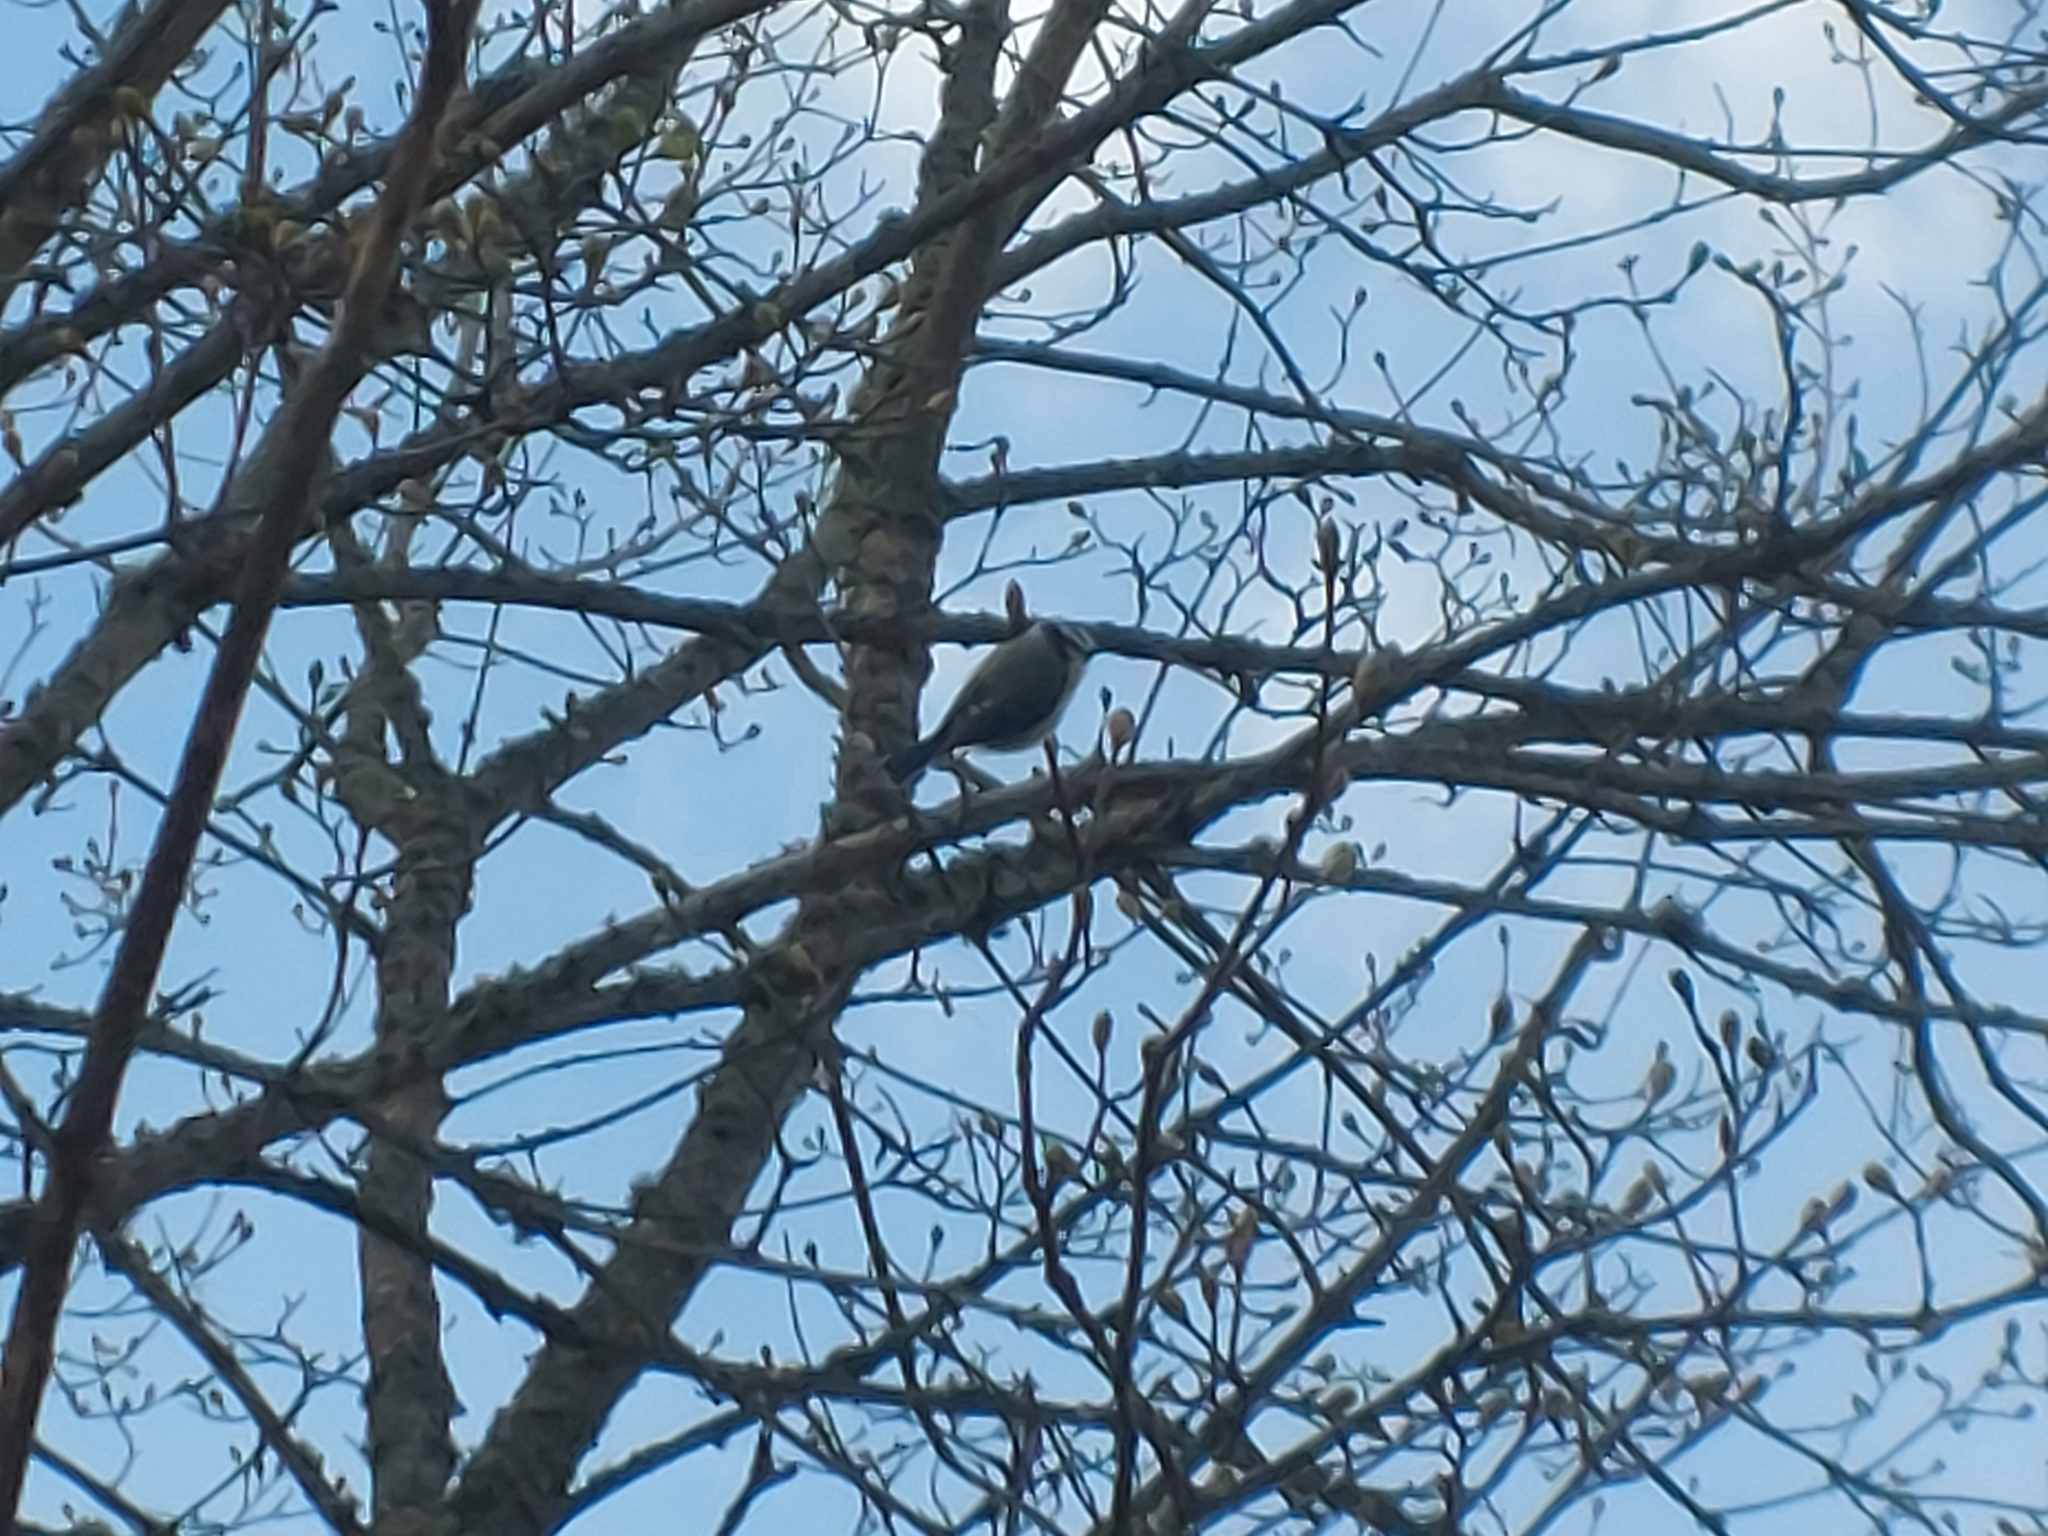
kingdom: Animalia
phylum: Chordata
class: Aves
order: Passeriformes
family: Paridae
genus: Cyanistes
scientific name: Cyanistes caeruleus
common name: Eurasian blue tit
